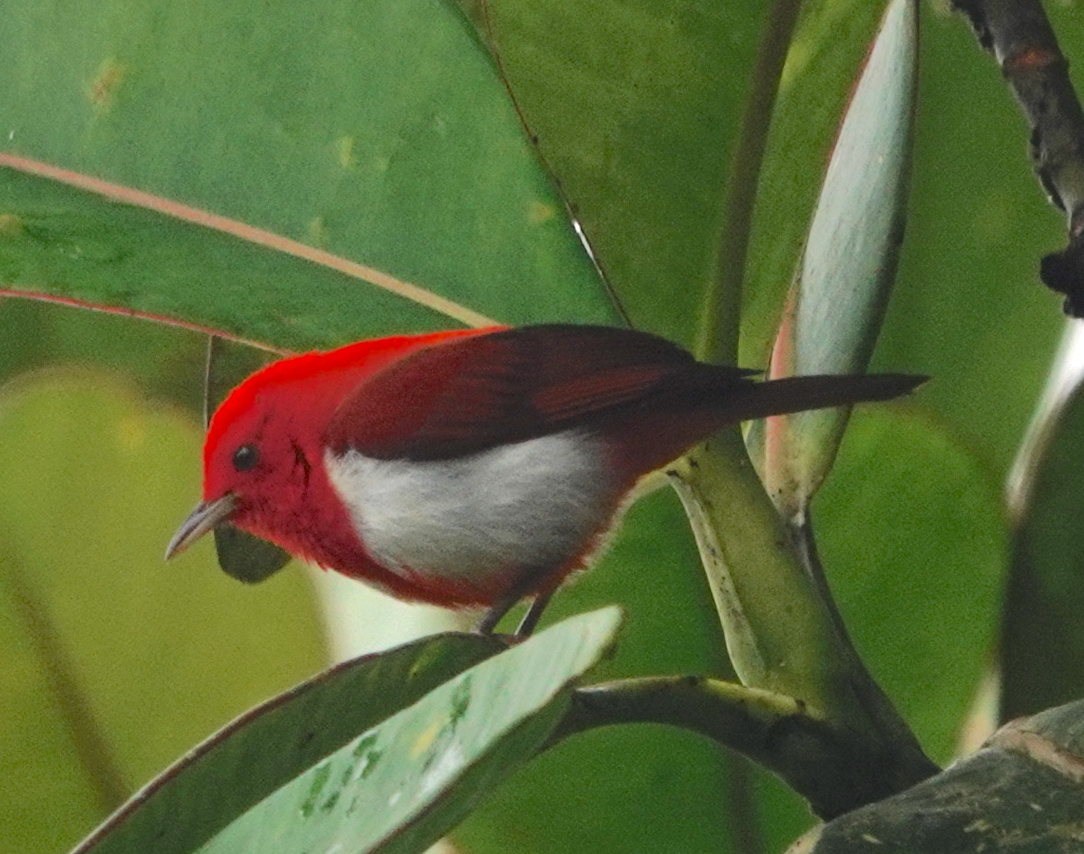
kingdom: Animalia
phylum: Chordata
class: Aves
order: Passeriformes
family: Thraupidae
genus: Chrysothlypis
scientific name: Chrysothlypis salmoni
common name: Scarlet-and-white tanager
